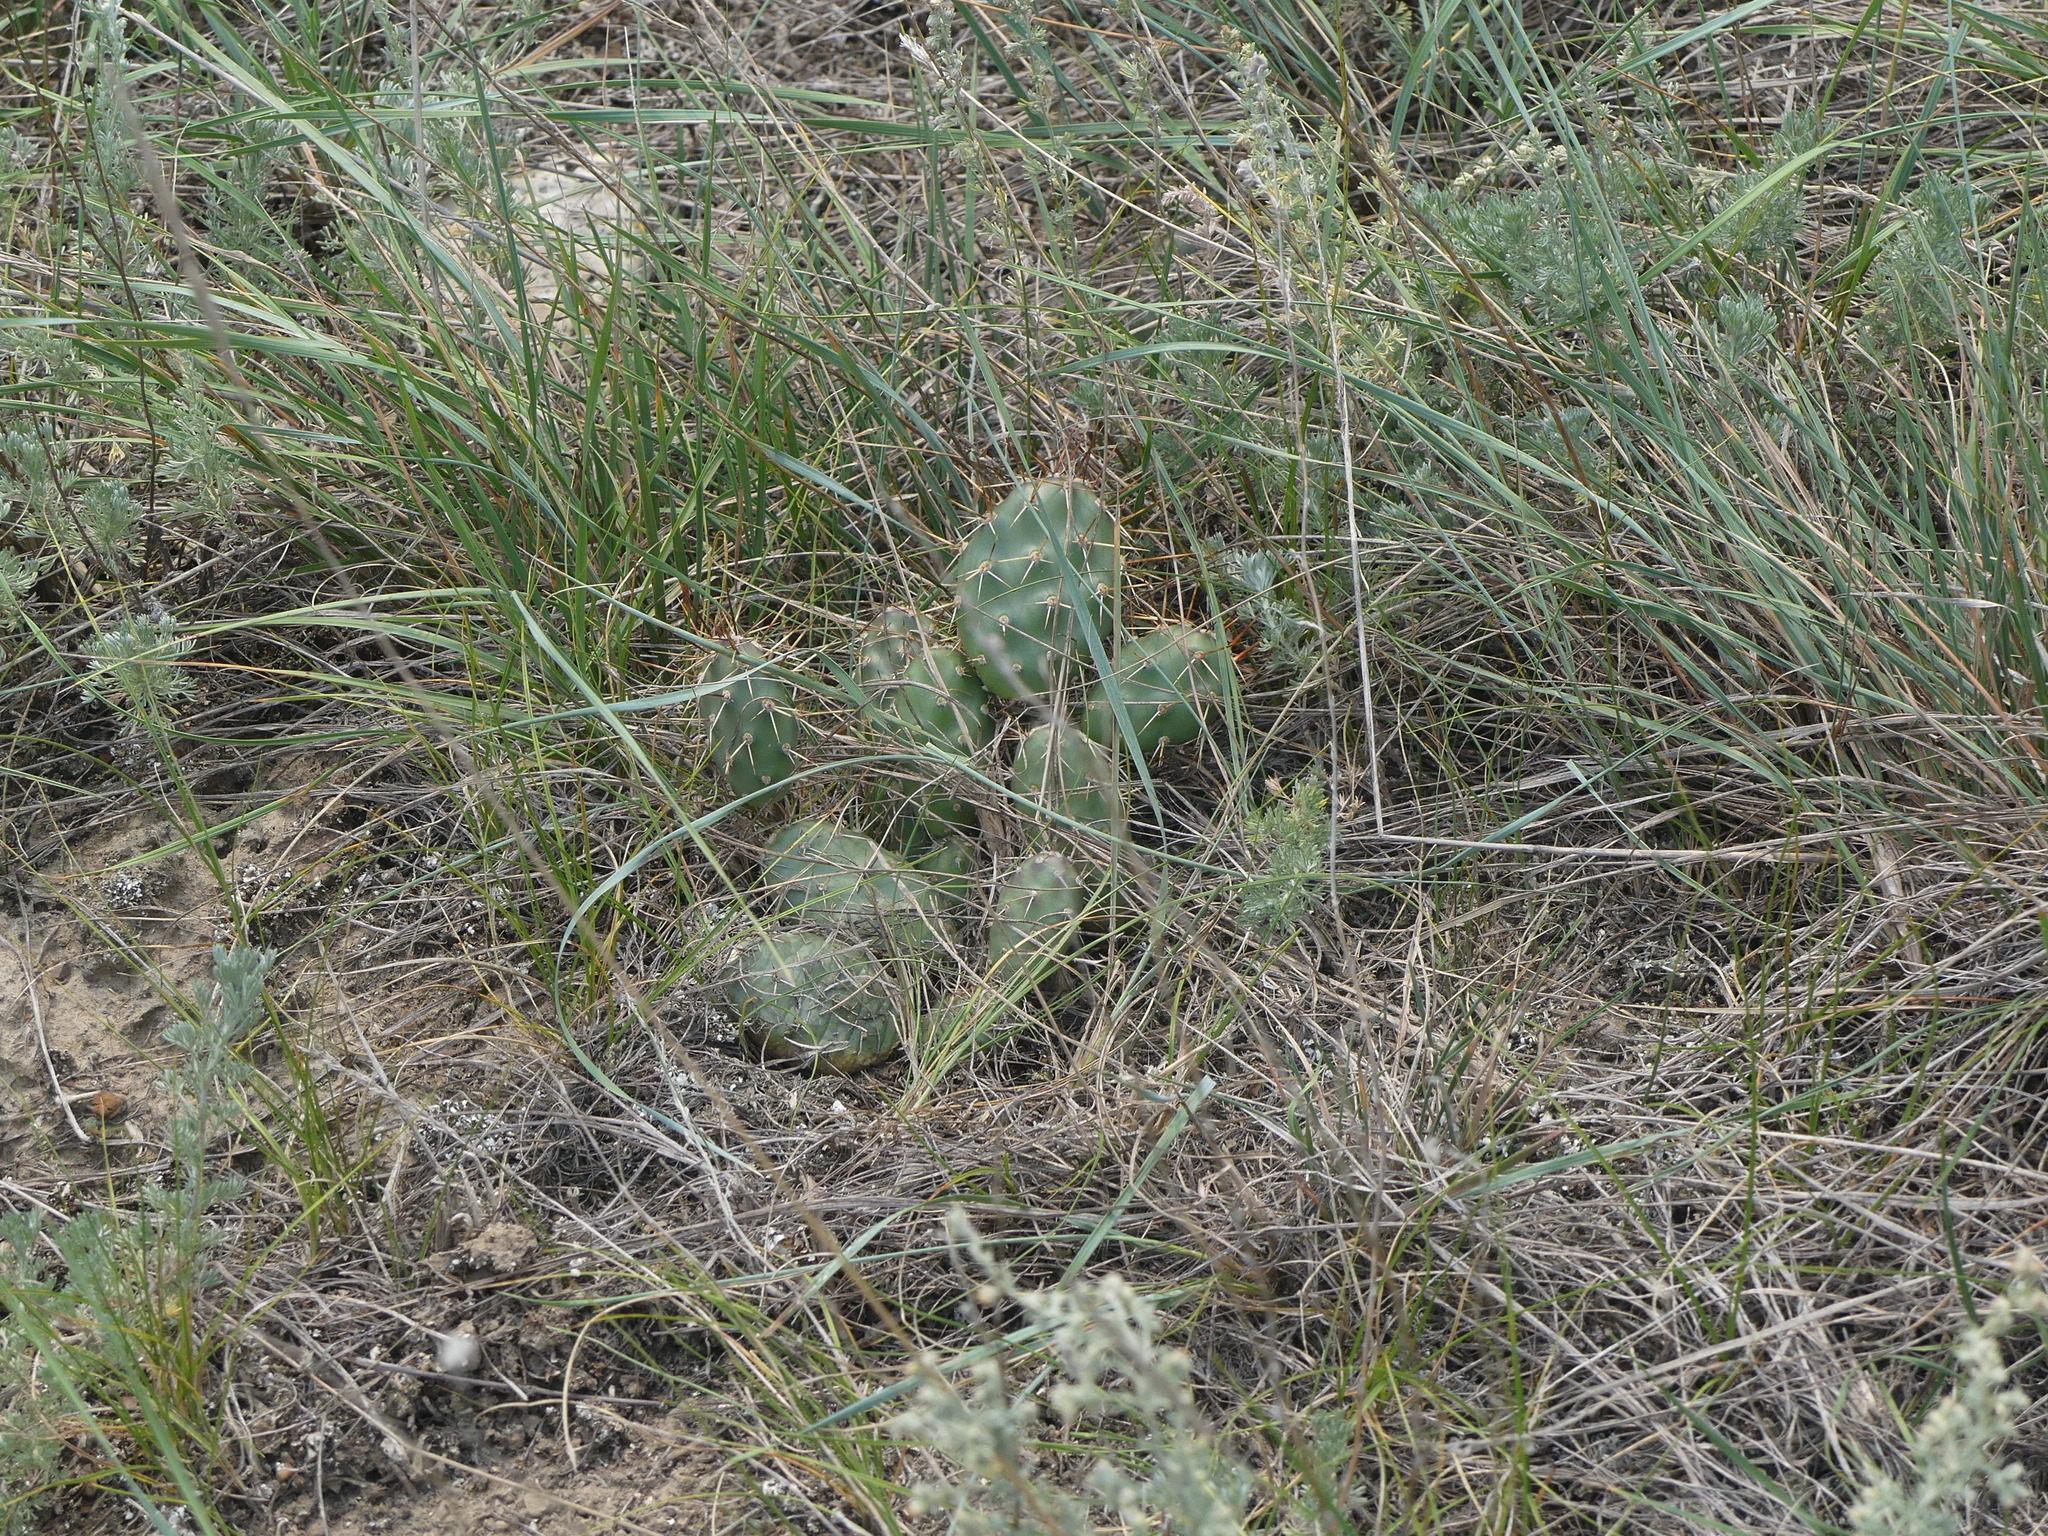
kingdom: Plantae
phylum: Tracheophyta
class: Magnoliopsida
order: Caryophyllales
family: Cactaceae
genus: Opuntia
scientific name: Opuntia fragilis
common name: Brittle cactus
